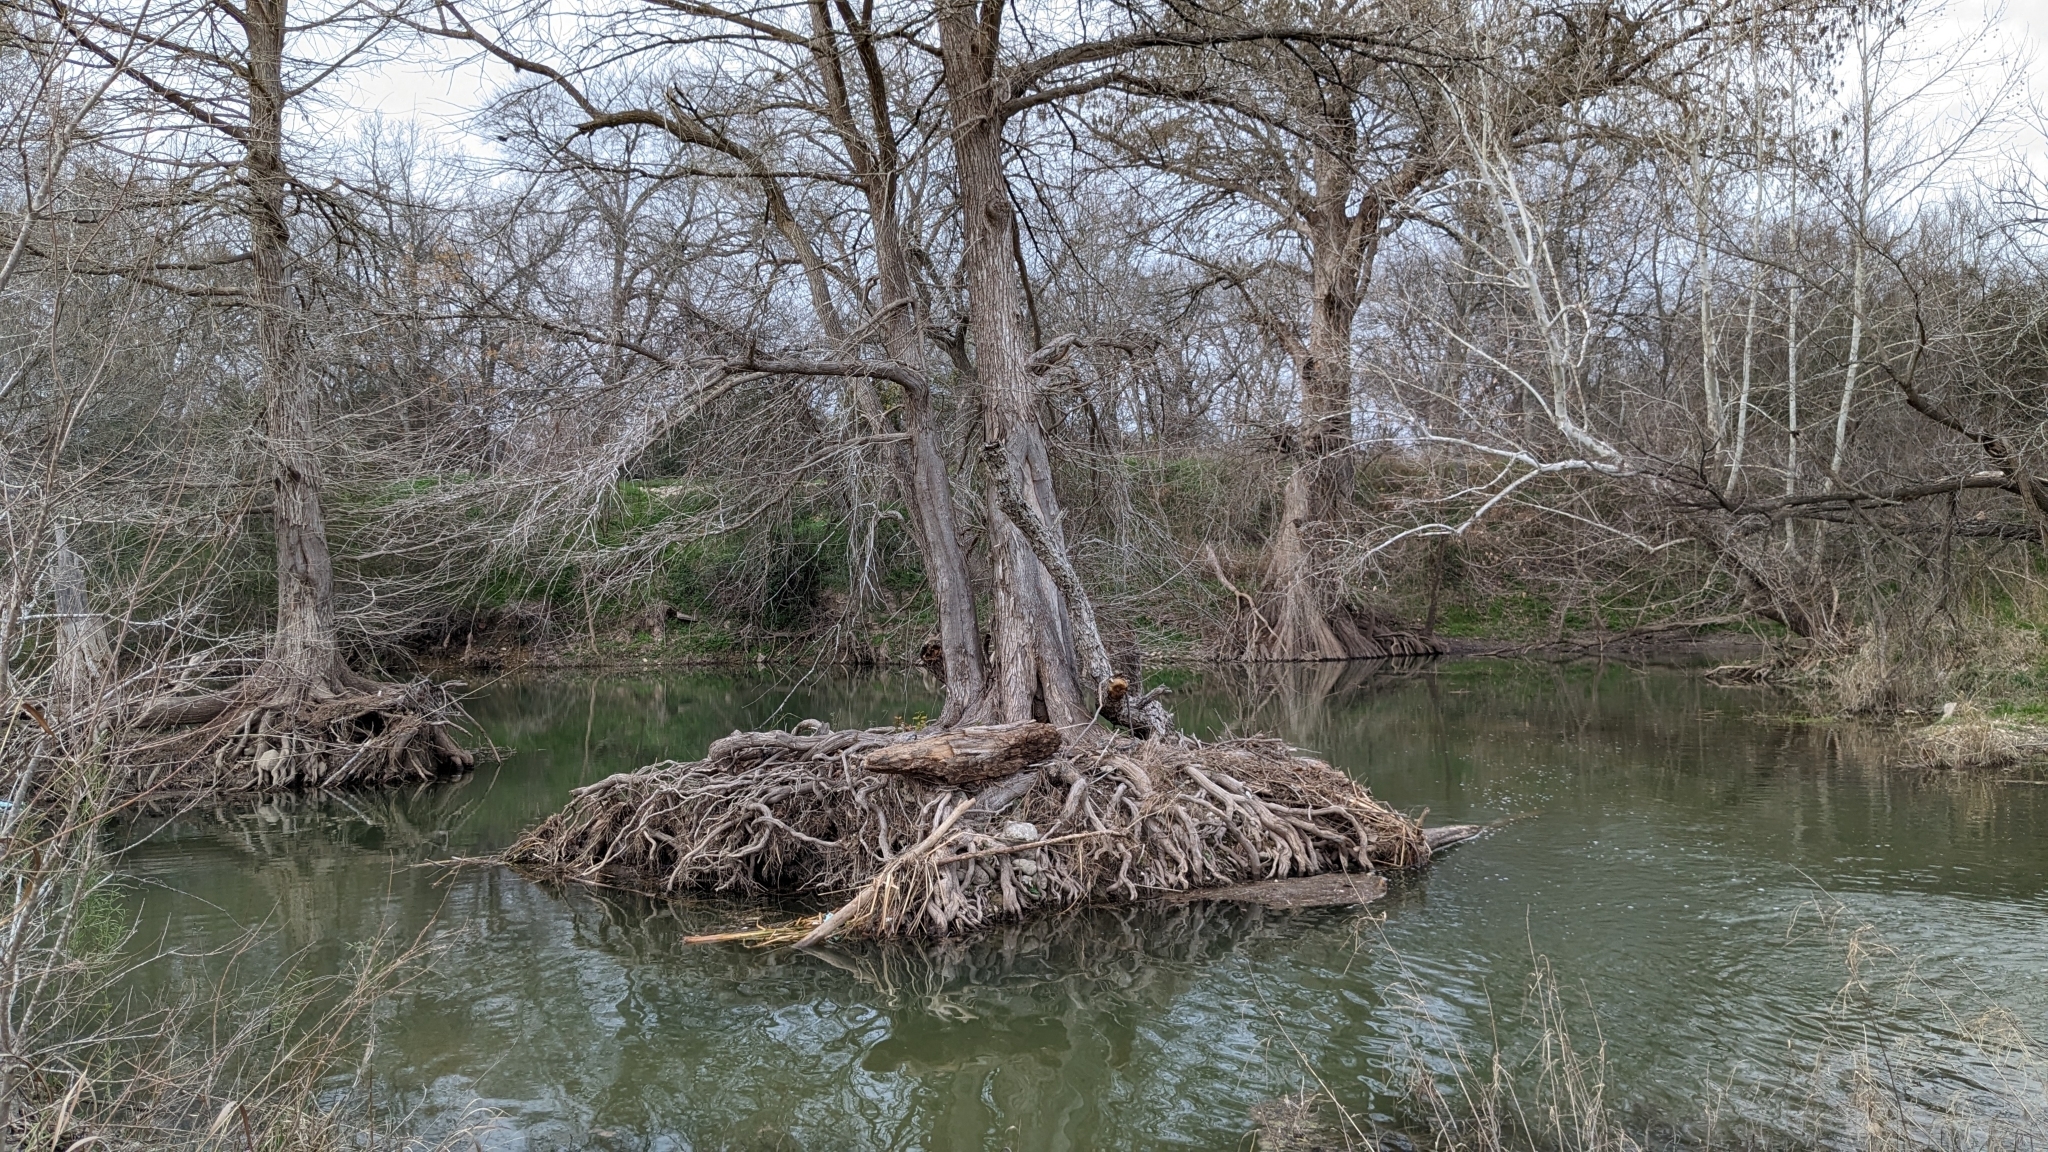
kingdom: Plantae
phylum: Tracheophyta
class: Pinopsida
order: Pinales
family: Cupressaceae
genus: Taxodium
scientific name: Taxodium distichum
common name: Bald cypress
